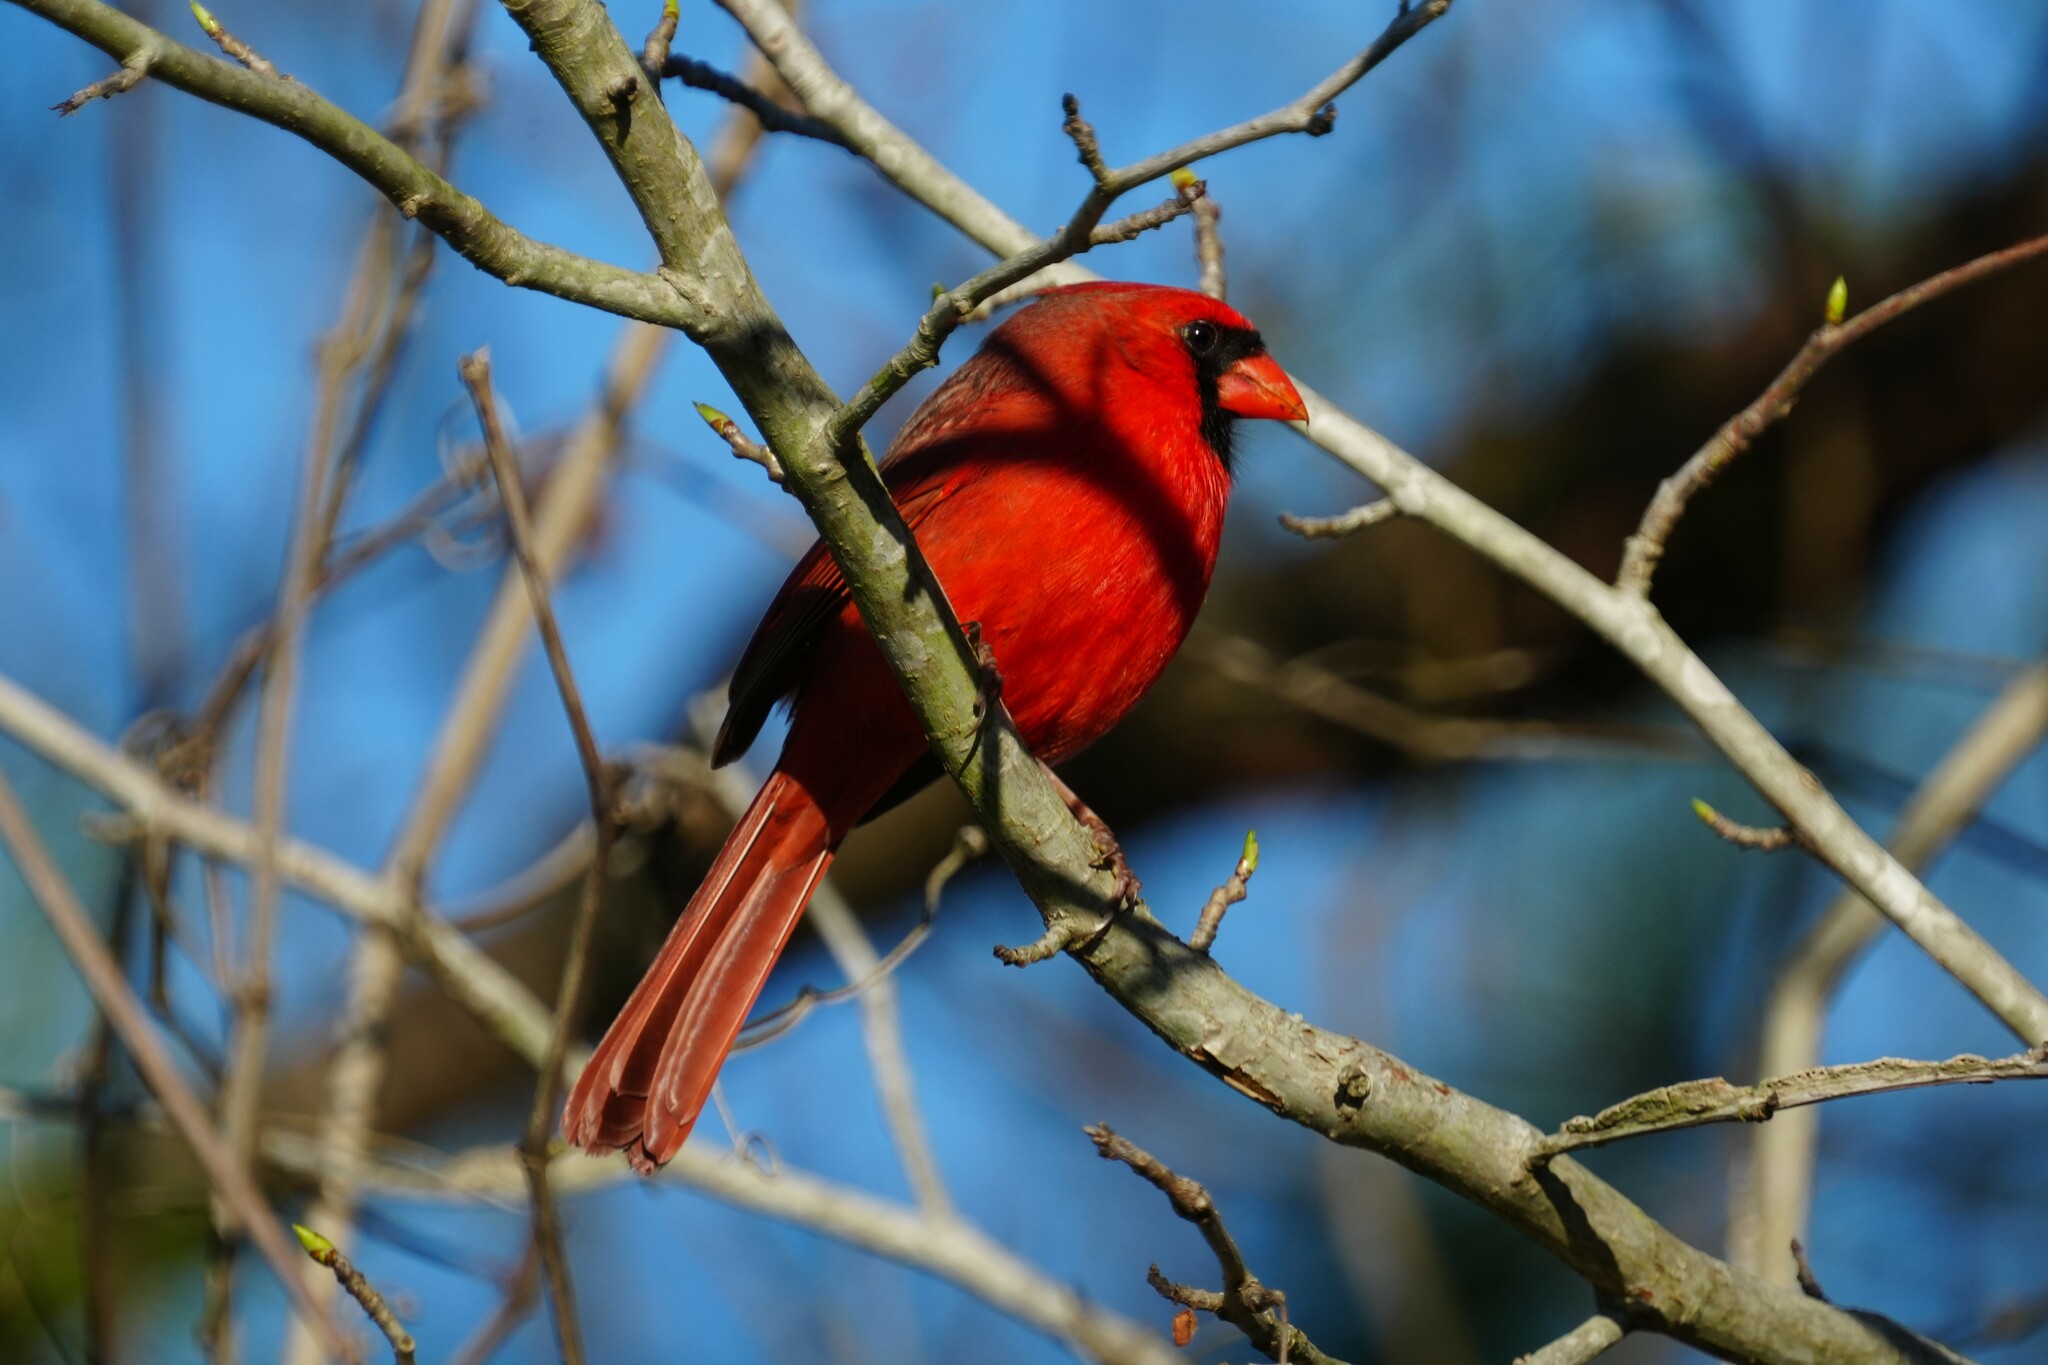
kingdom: Animalia
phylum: Chordata
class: Aves
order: Passeriformes
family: Cardinalidae
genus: Cardinalis
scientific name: Cardinalis cardinalis
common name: Northern cardinal
